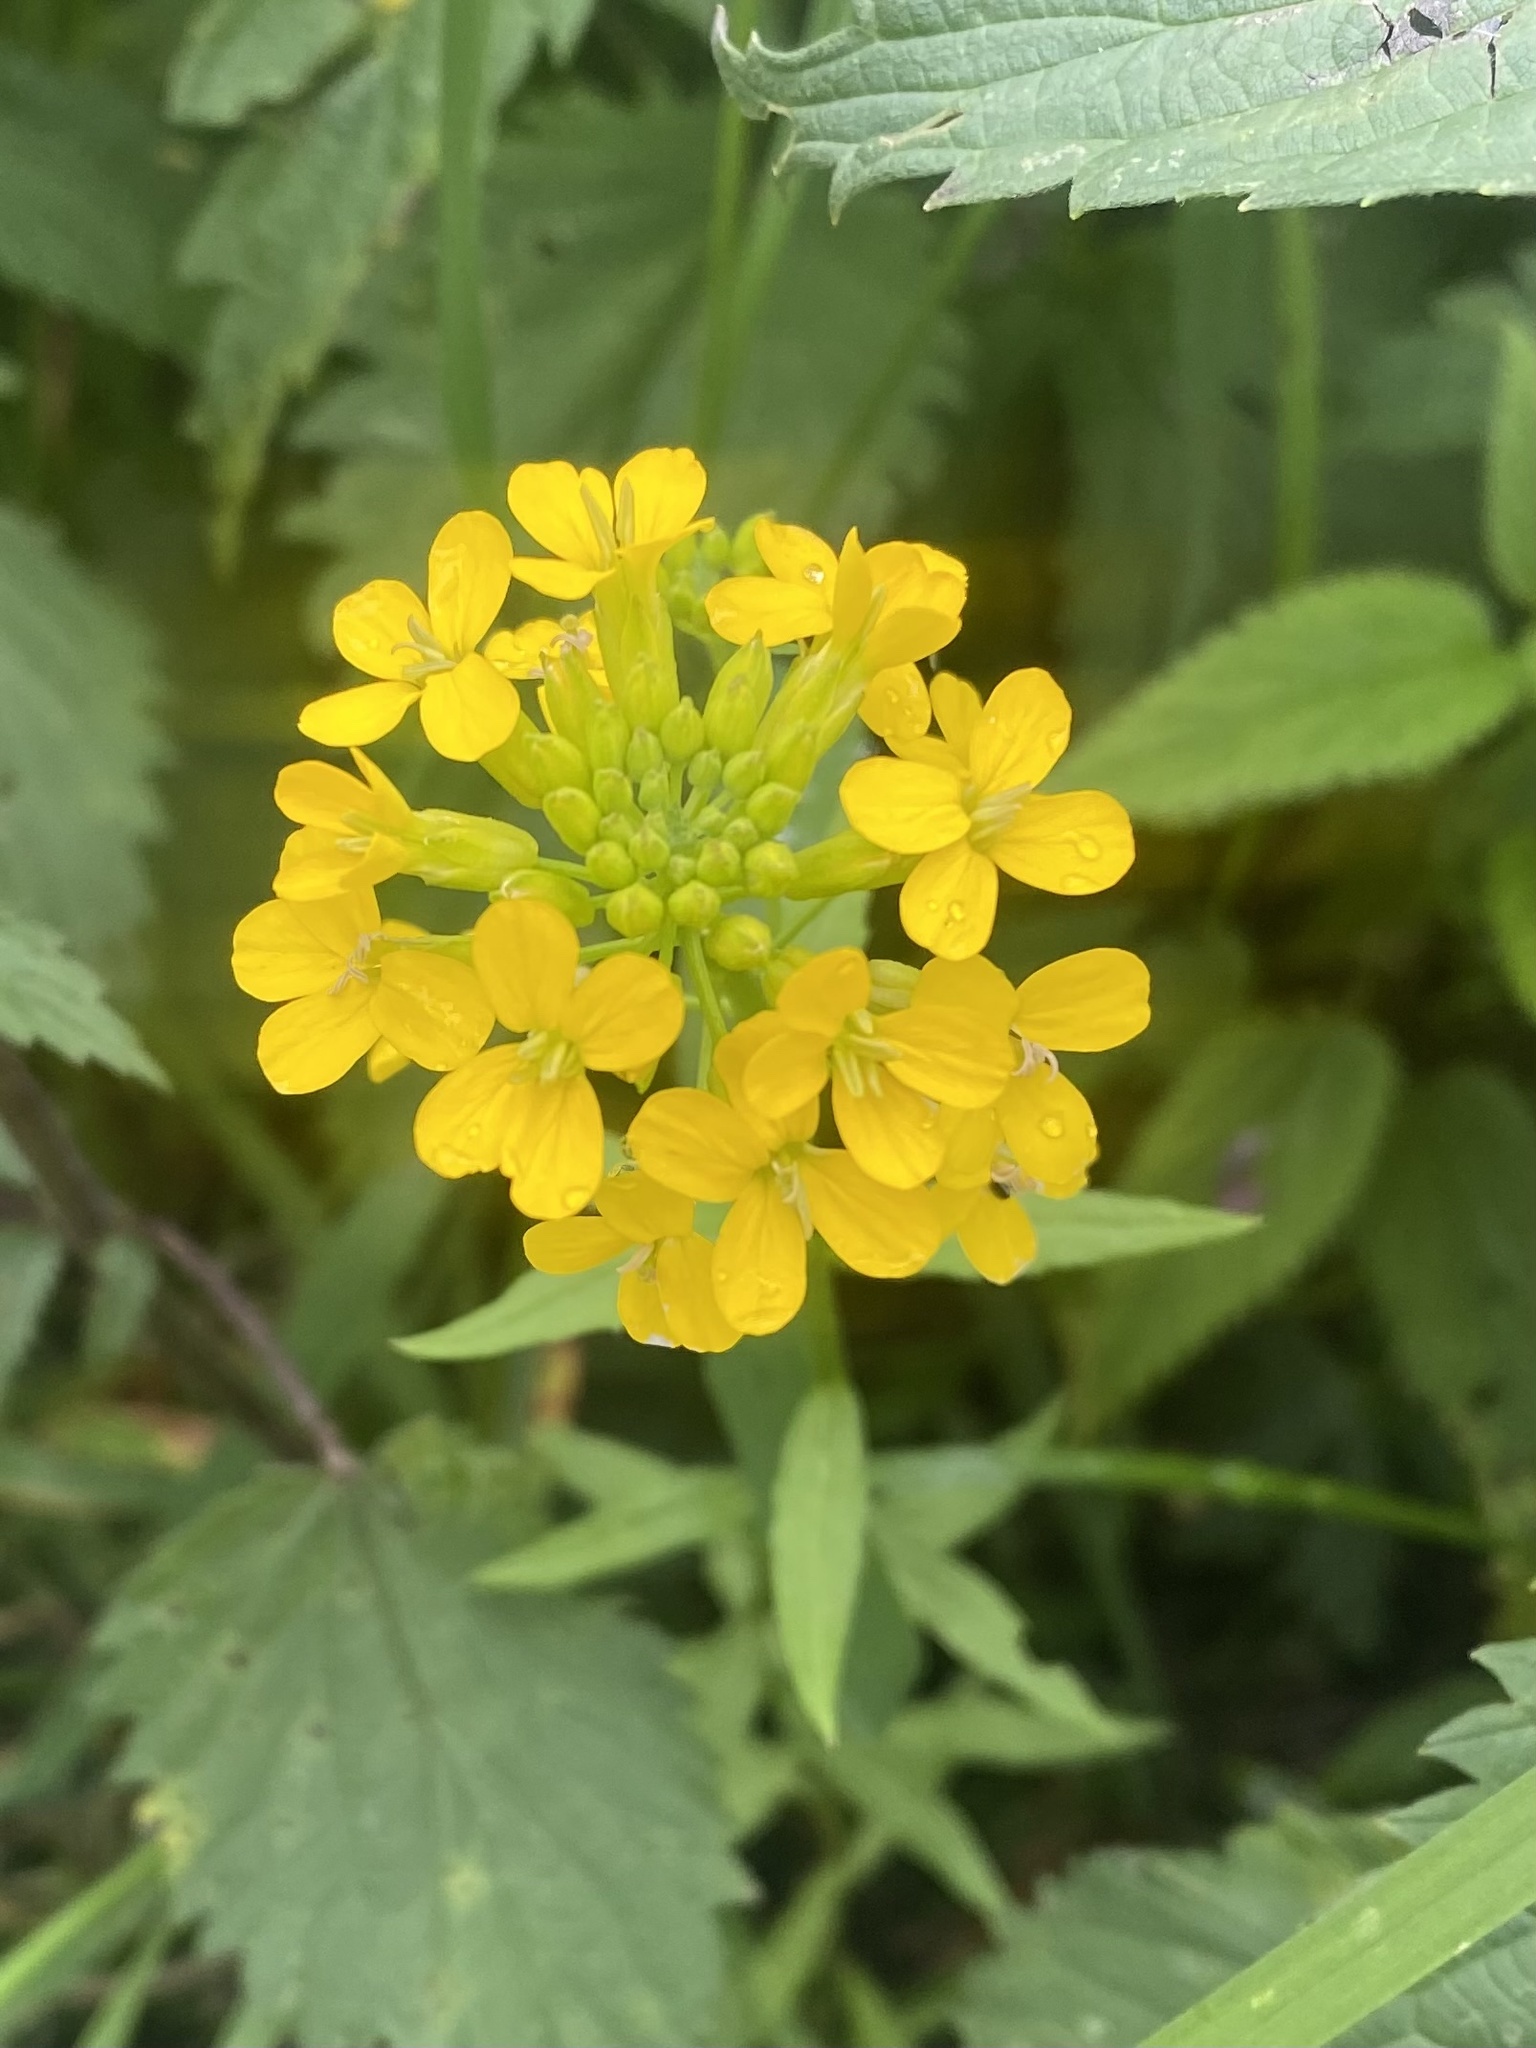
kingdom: Plantae
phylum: Tracheophyta
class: Magnoliopsida
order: Brassicales
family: Brassicaceae
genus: Erysimum
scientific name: Erysimum aureum
